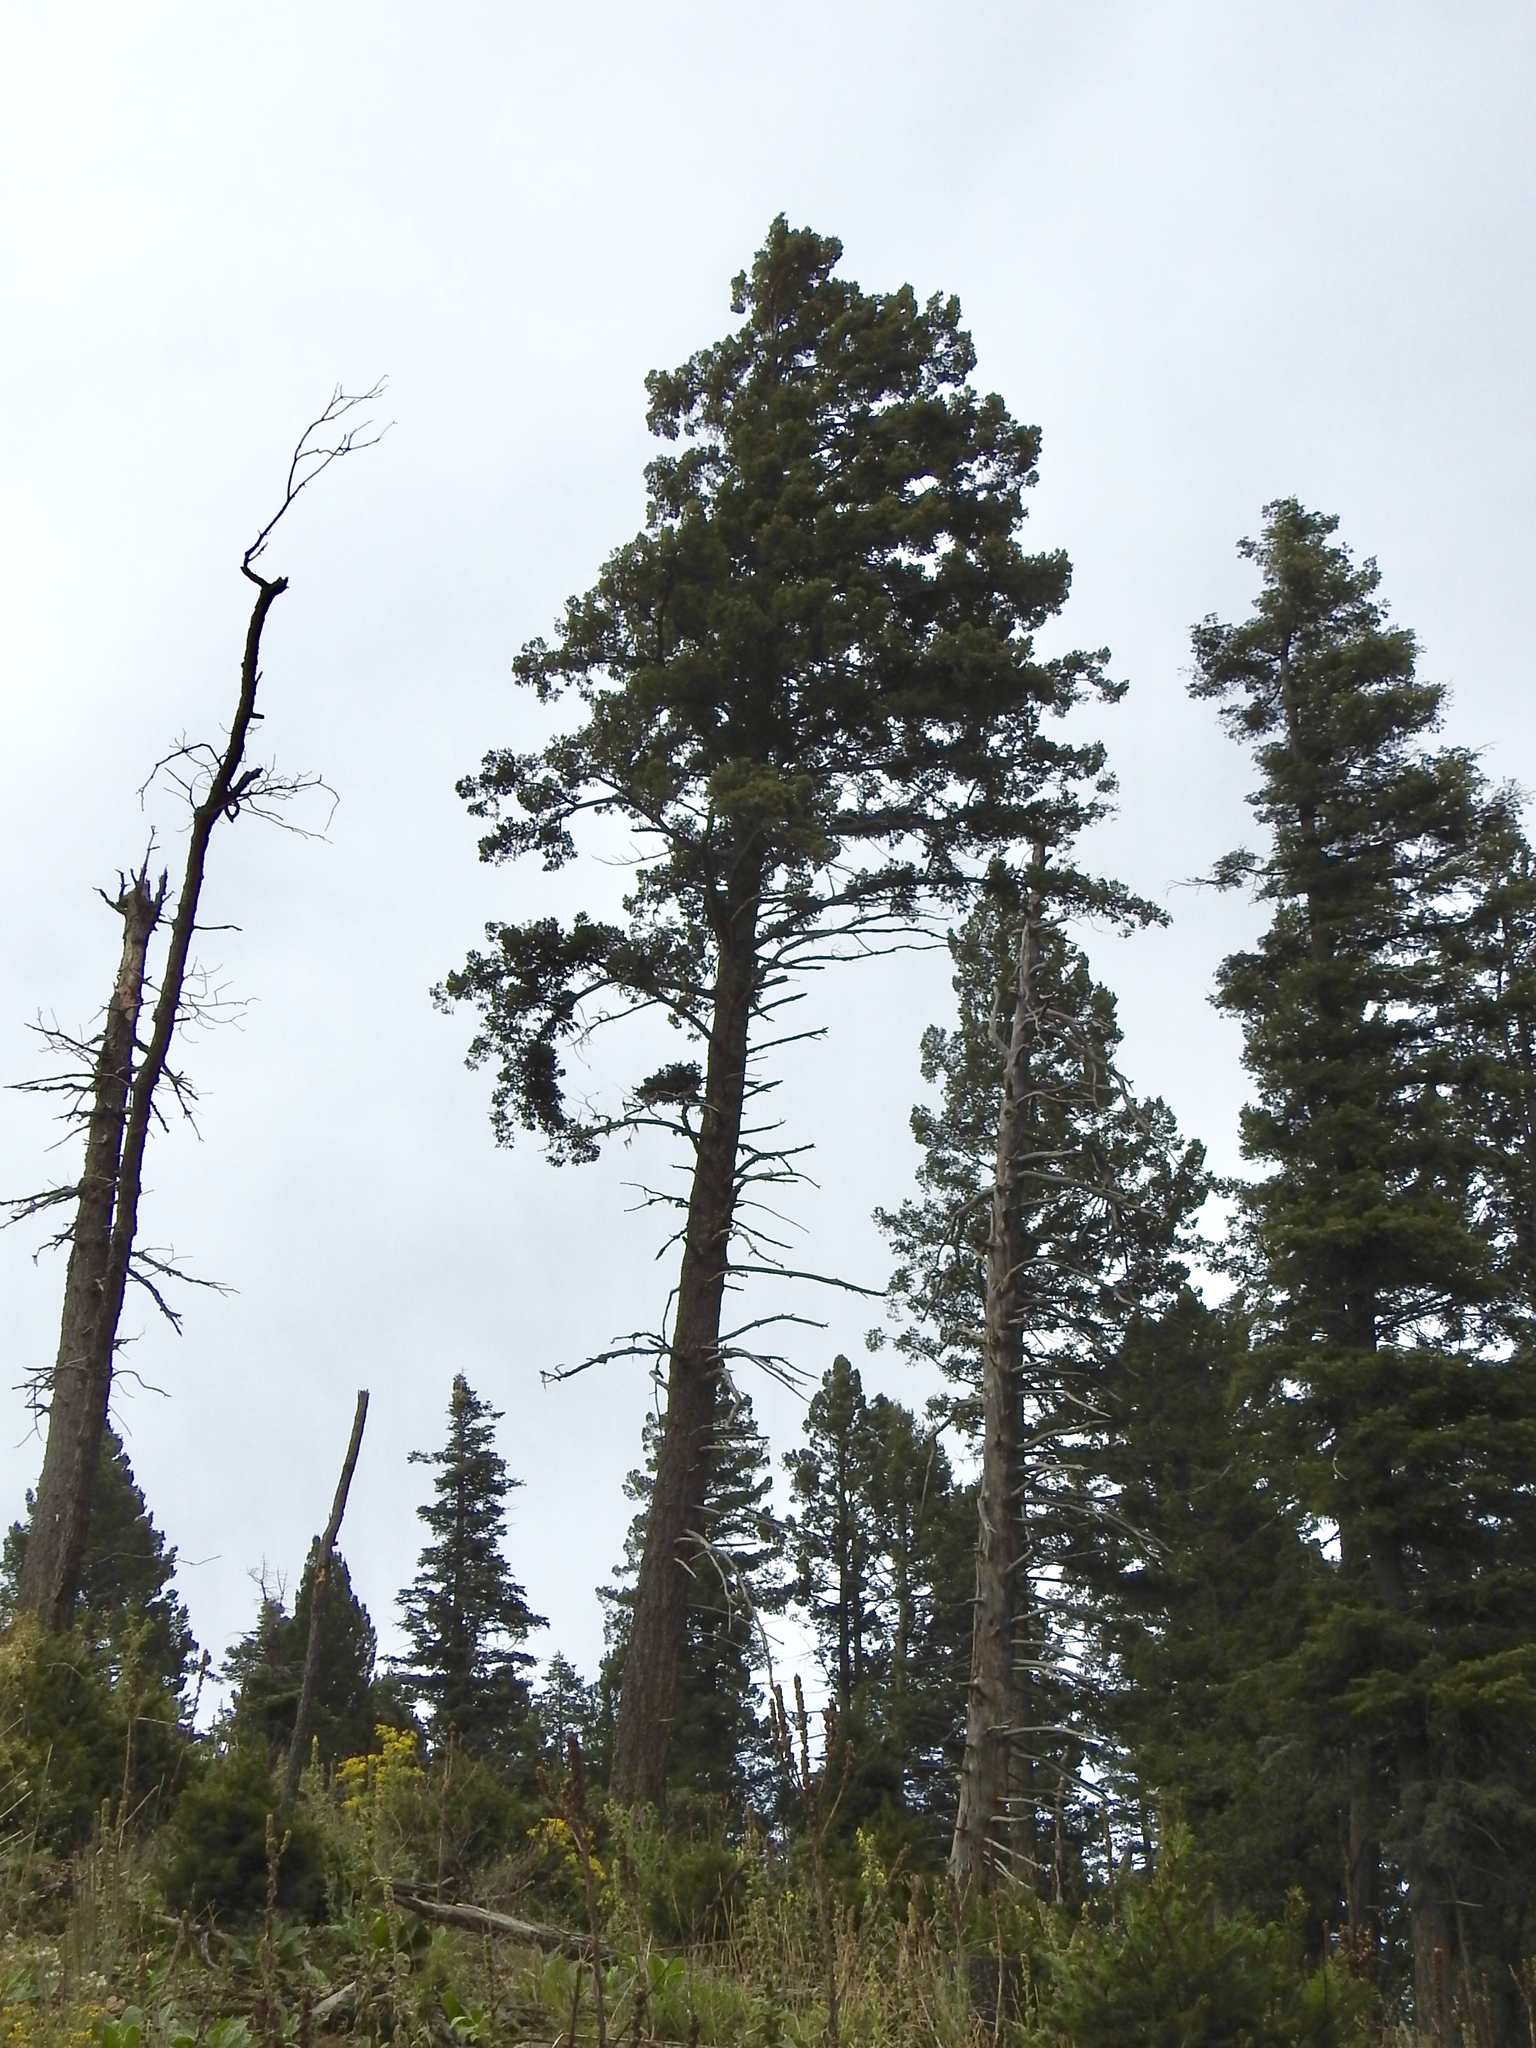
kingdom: Plantae
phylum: Tracheophyta
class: Pinopsida
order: Pinales
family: Pinaceae
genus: Pseudotsuga
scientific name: Pseudotsuga menziesii
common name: Douglas fir
